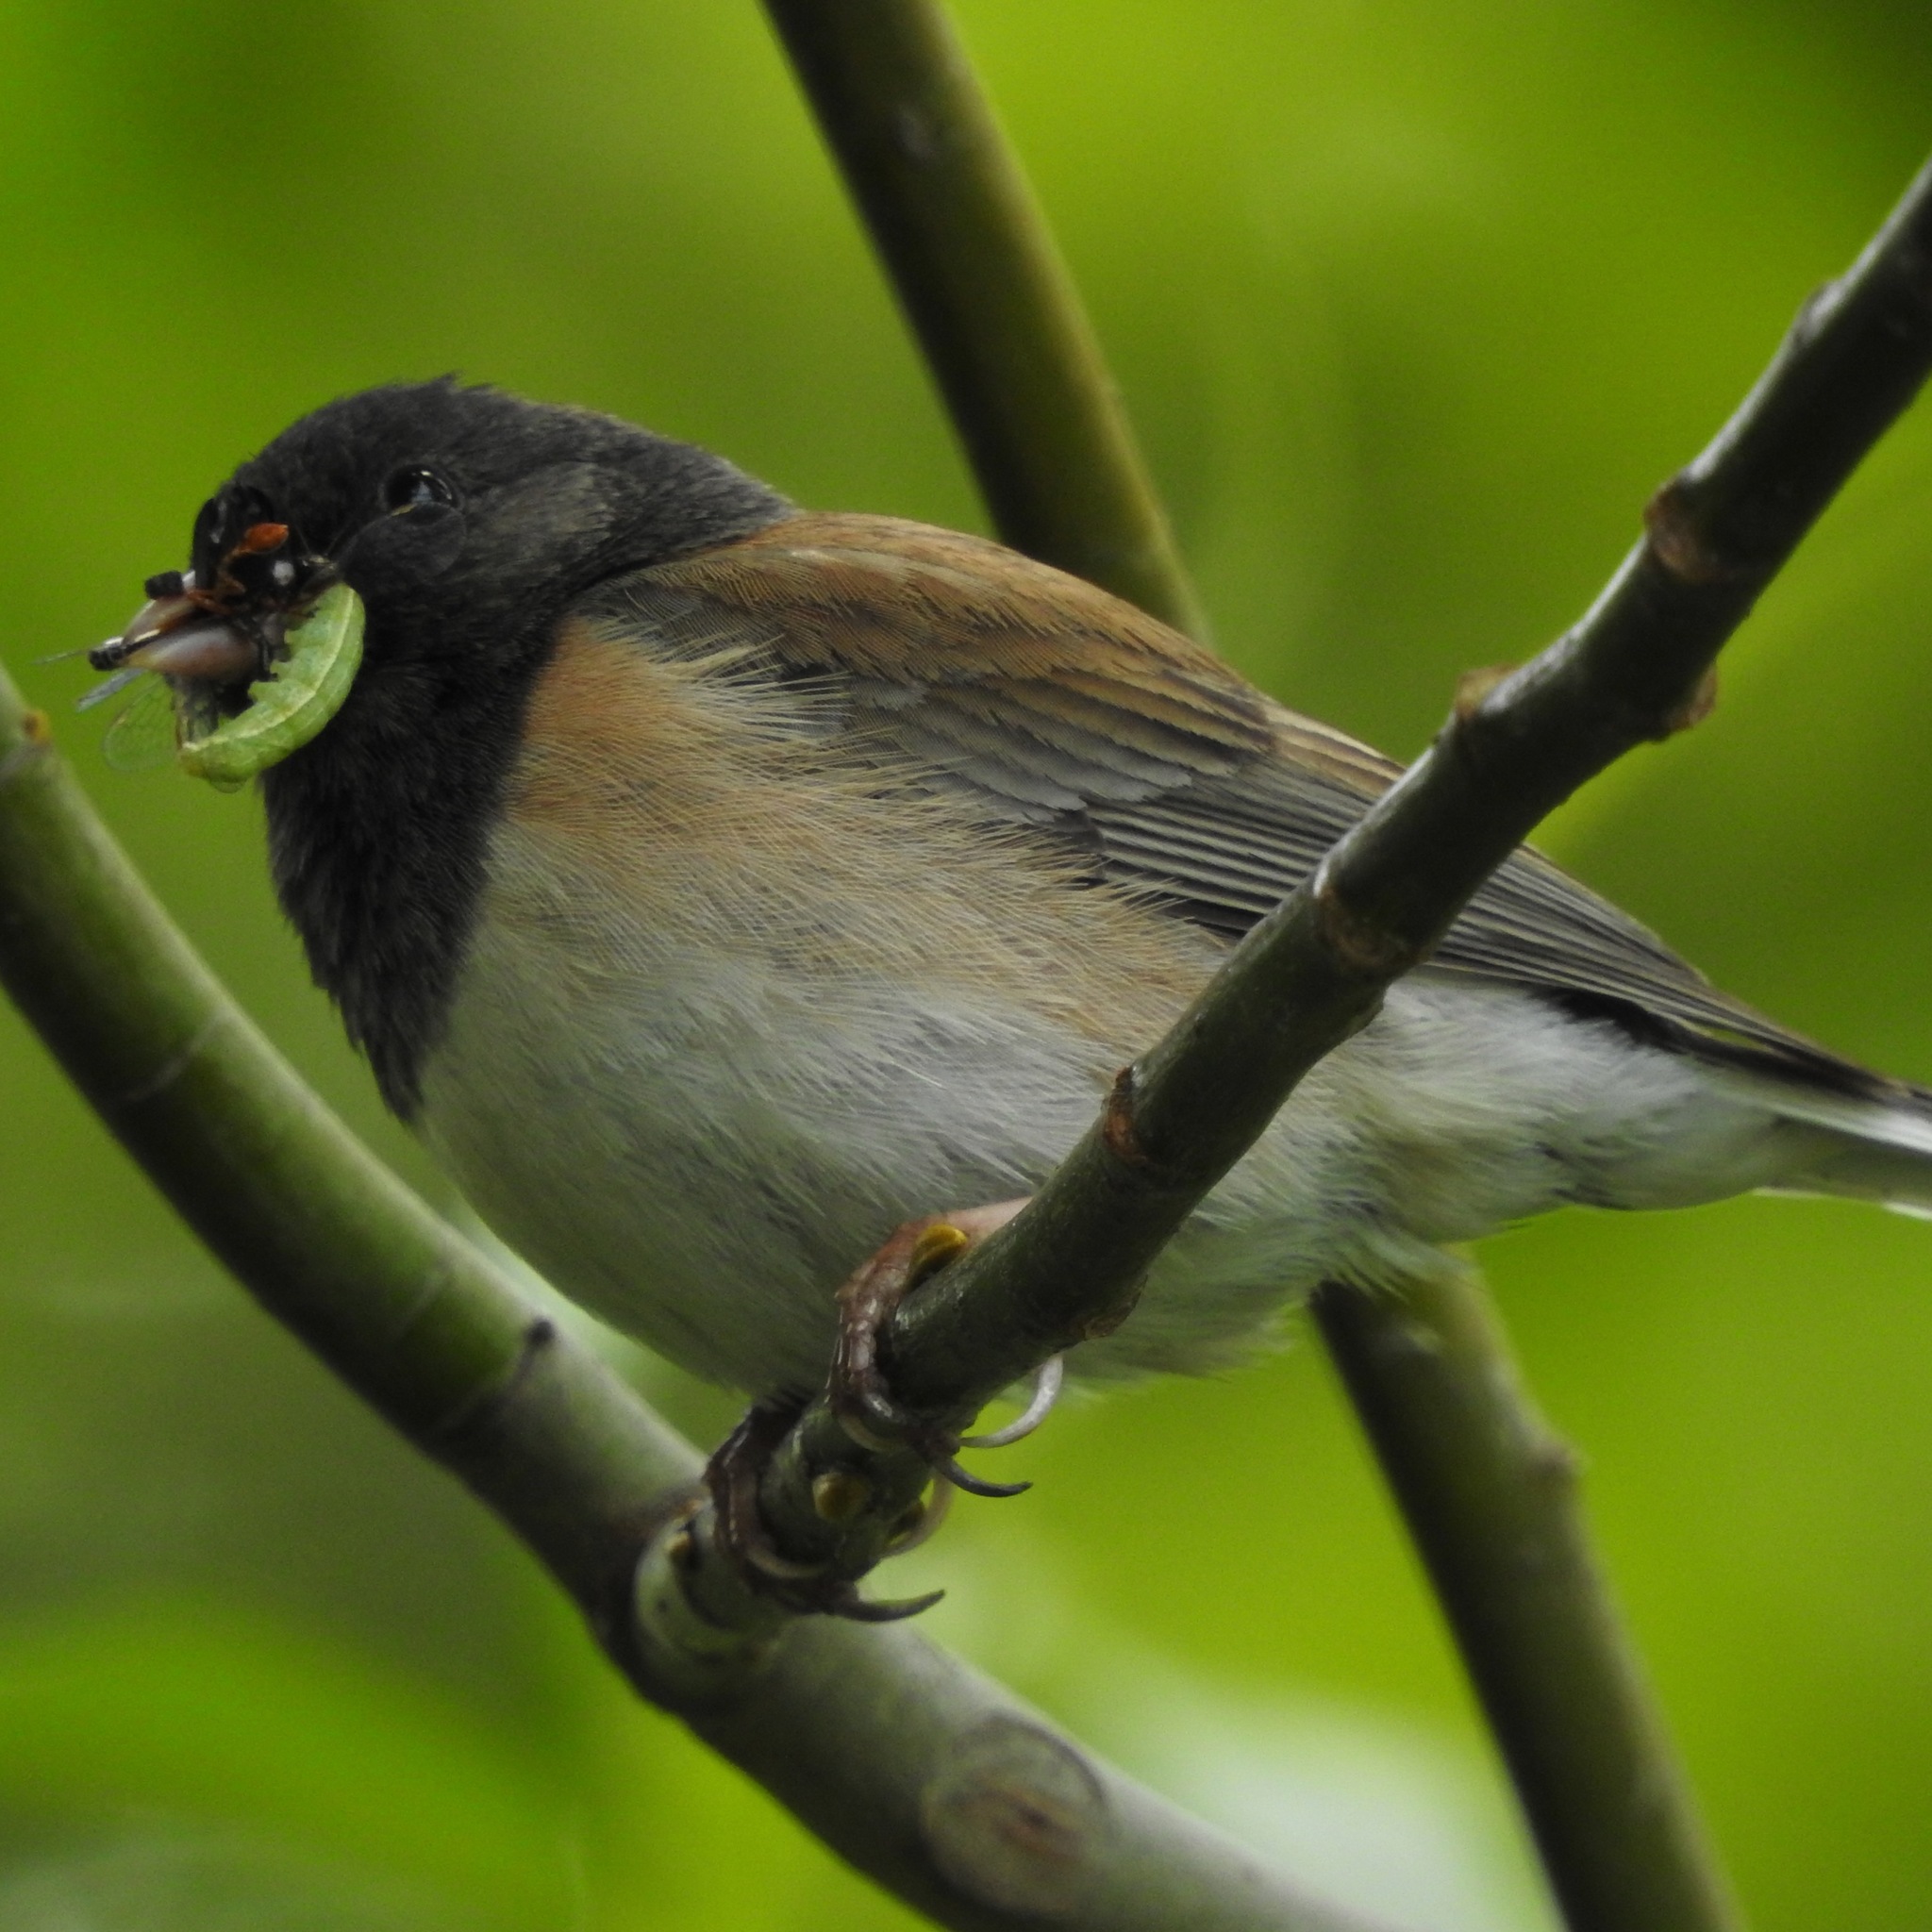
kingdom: Animalia
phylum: Chordata
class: Aves
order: Passeriformes
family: Passerellidae
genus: Junco
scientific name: Junco hyemalis
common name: Dark-eyed junco
